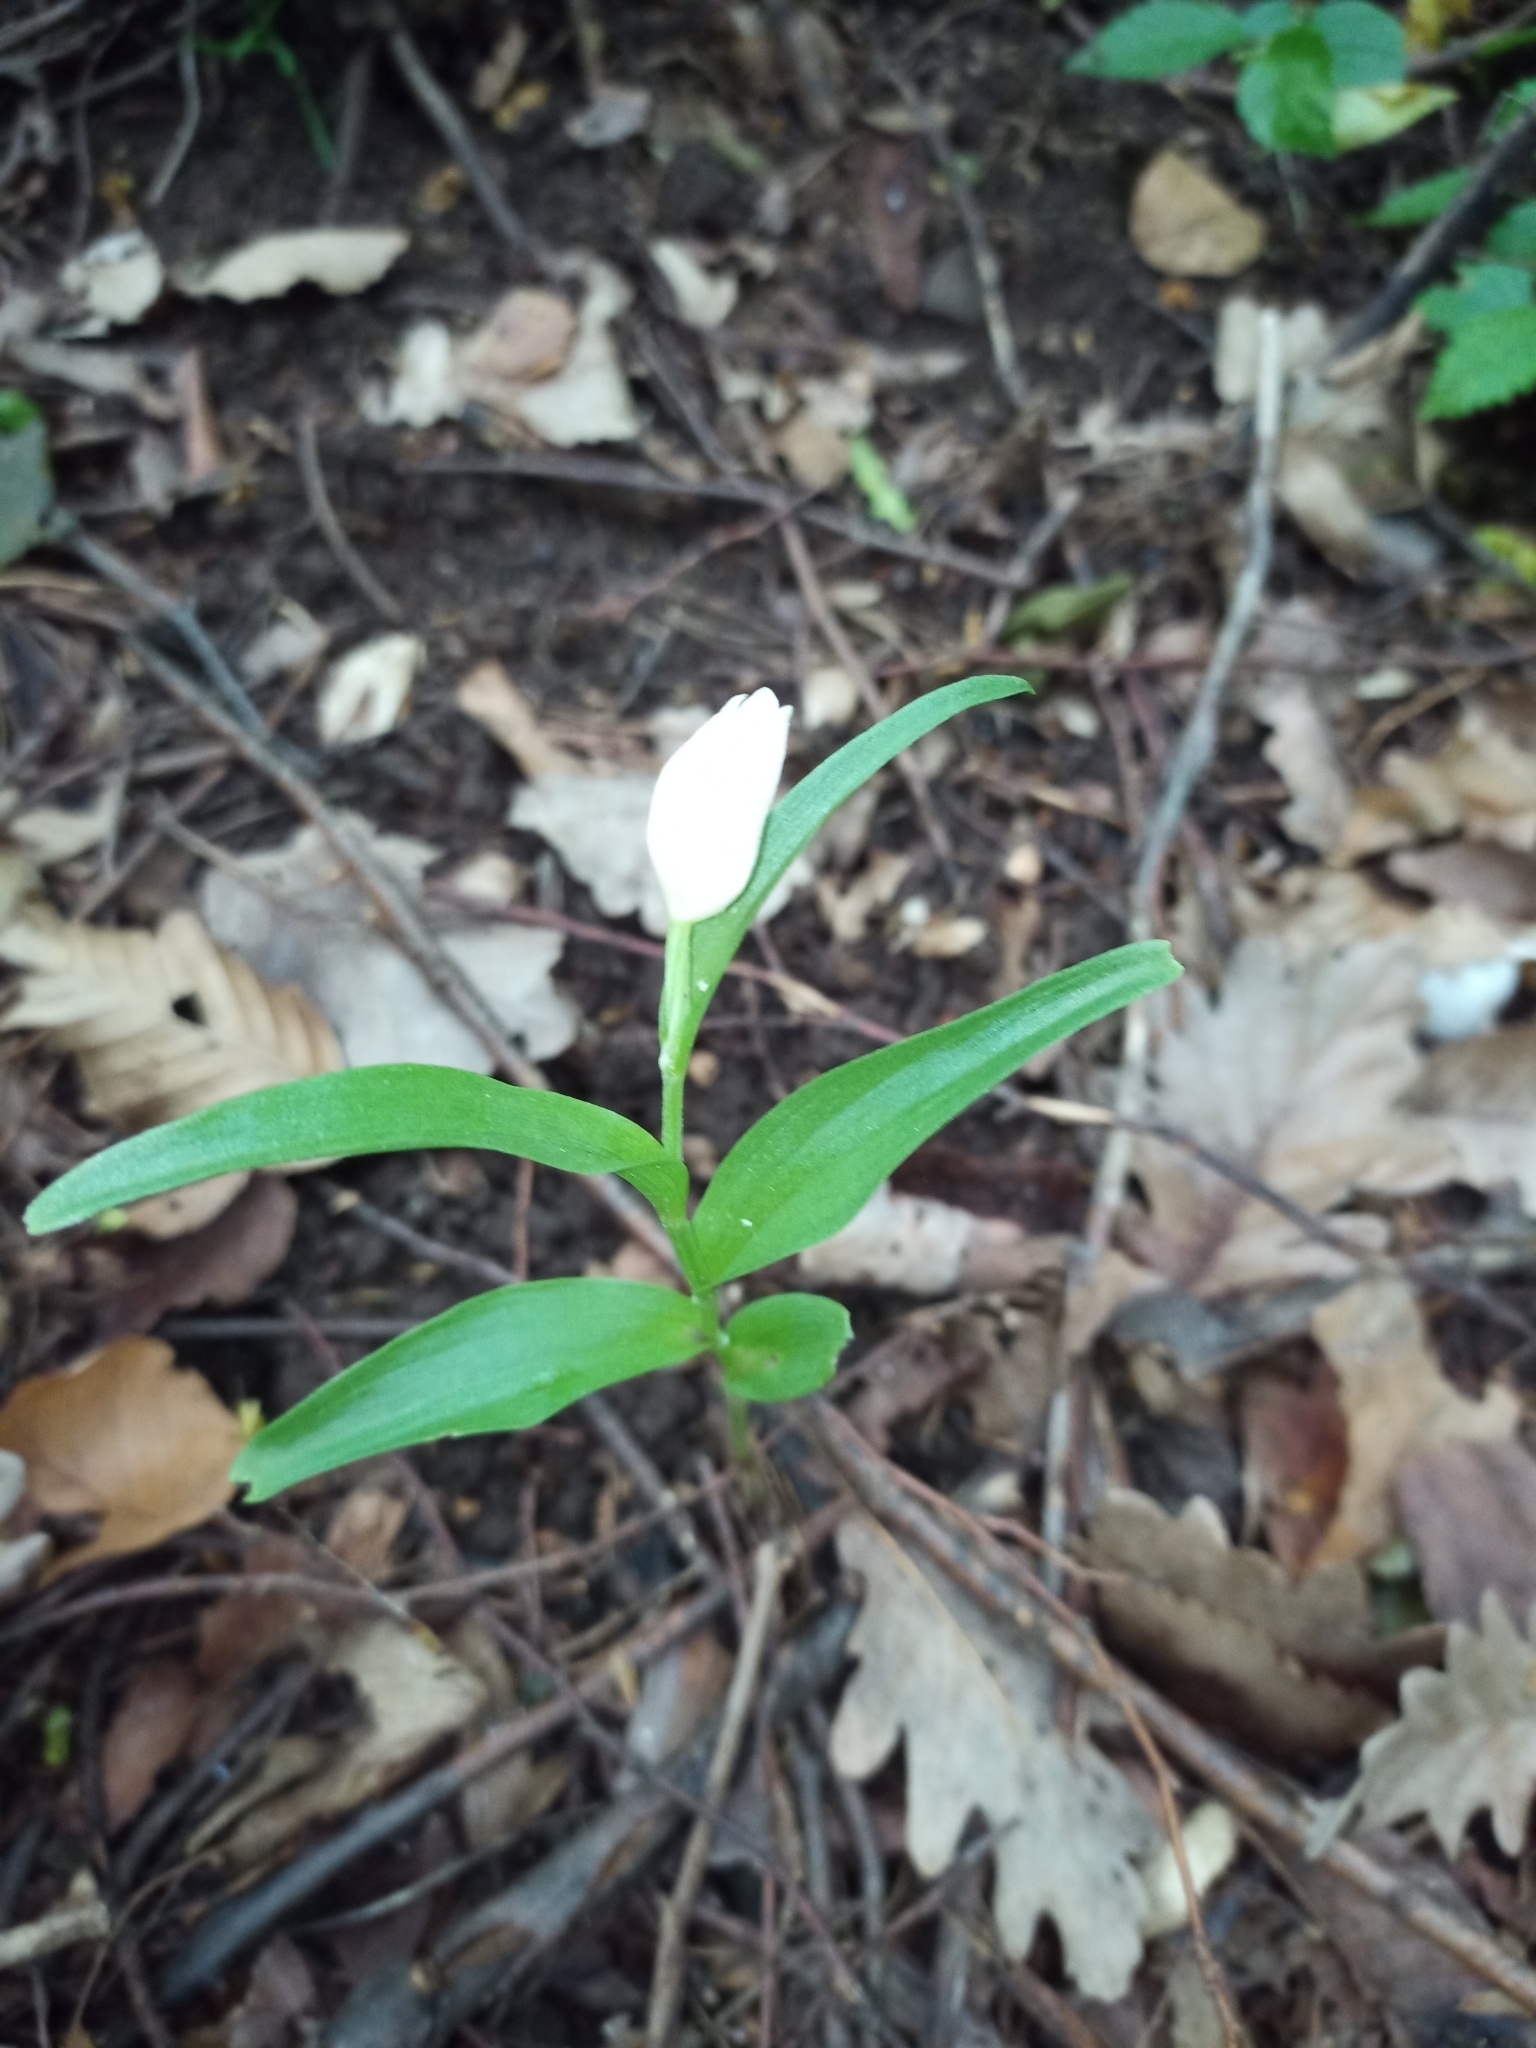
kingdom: Plantae
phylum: Tracheophyta
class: Liliopsida
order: Asparagales
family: Orchidaceae
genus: Cephalanthera
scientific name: Cephalanthera damasonium
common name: White helleborine
